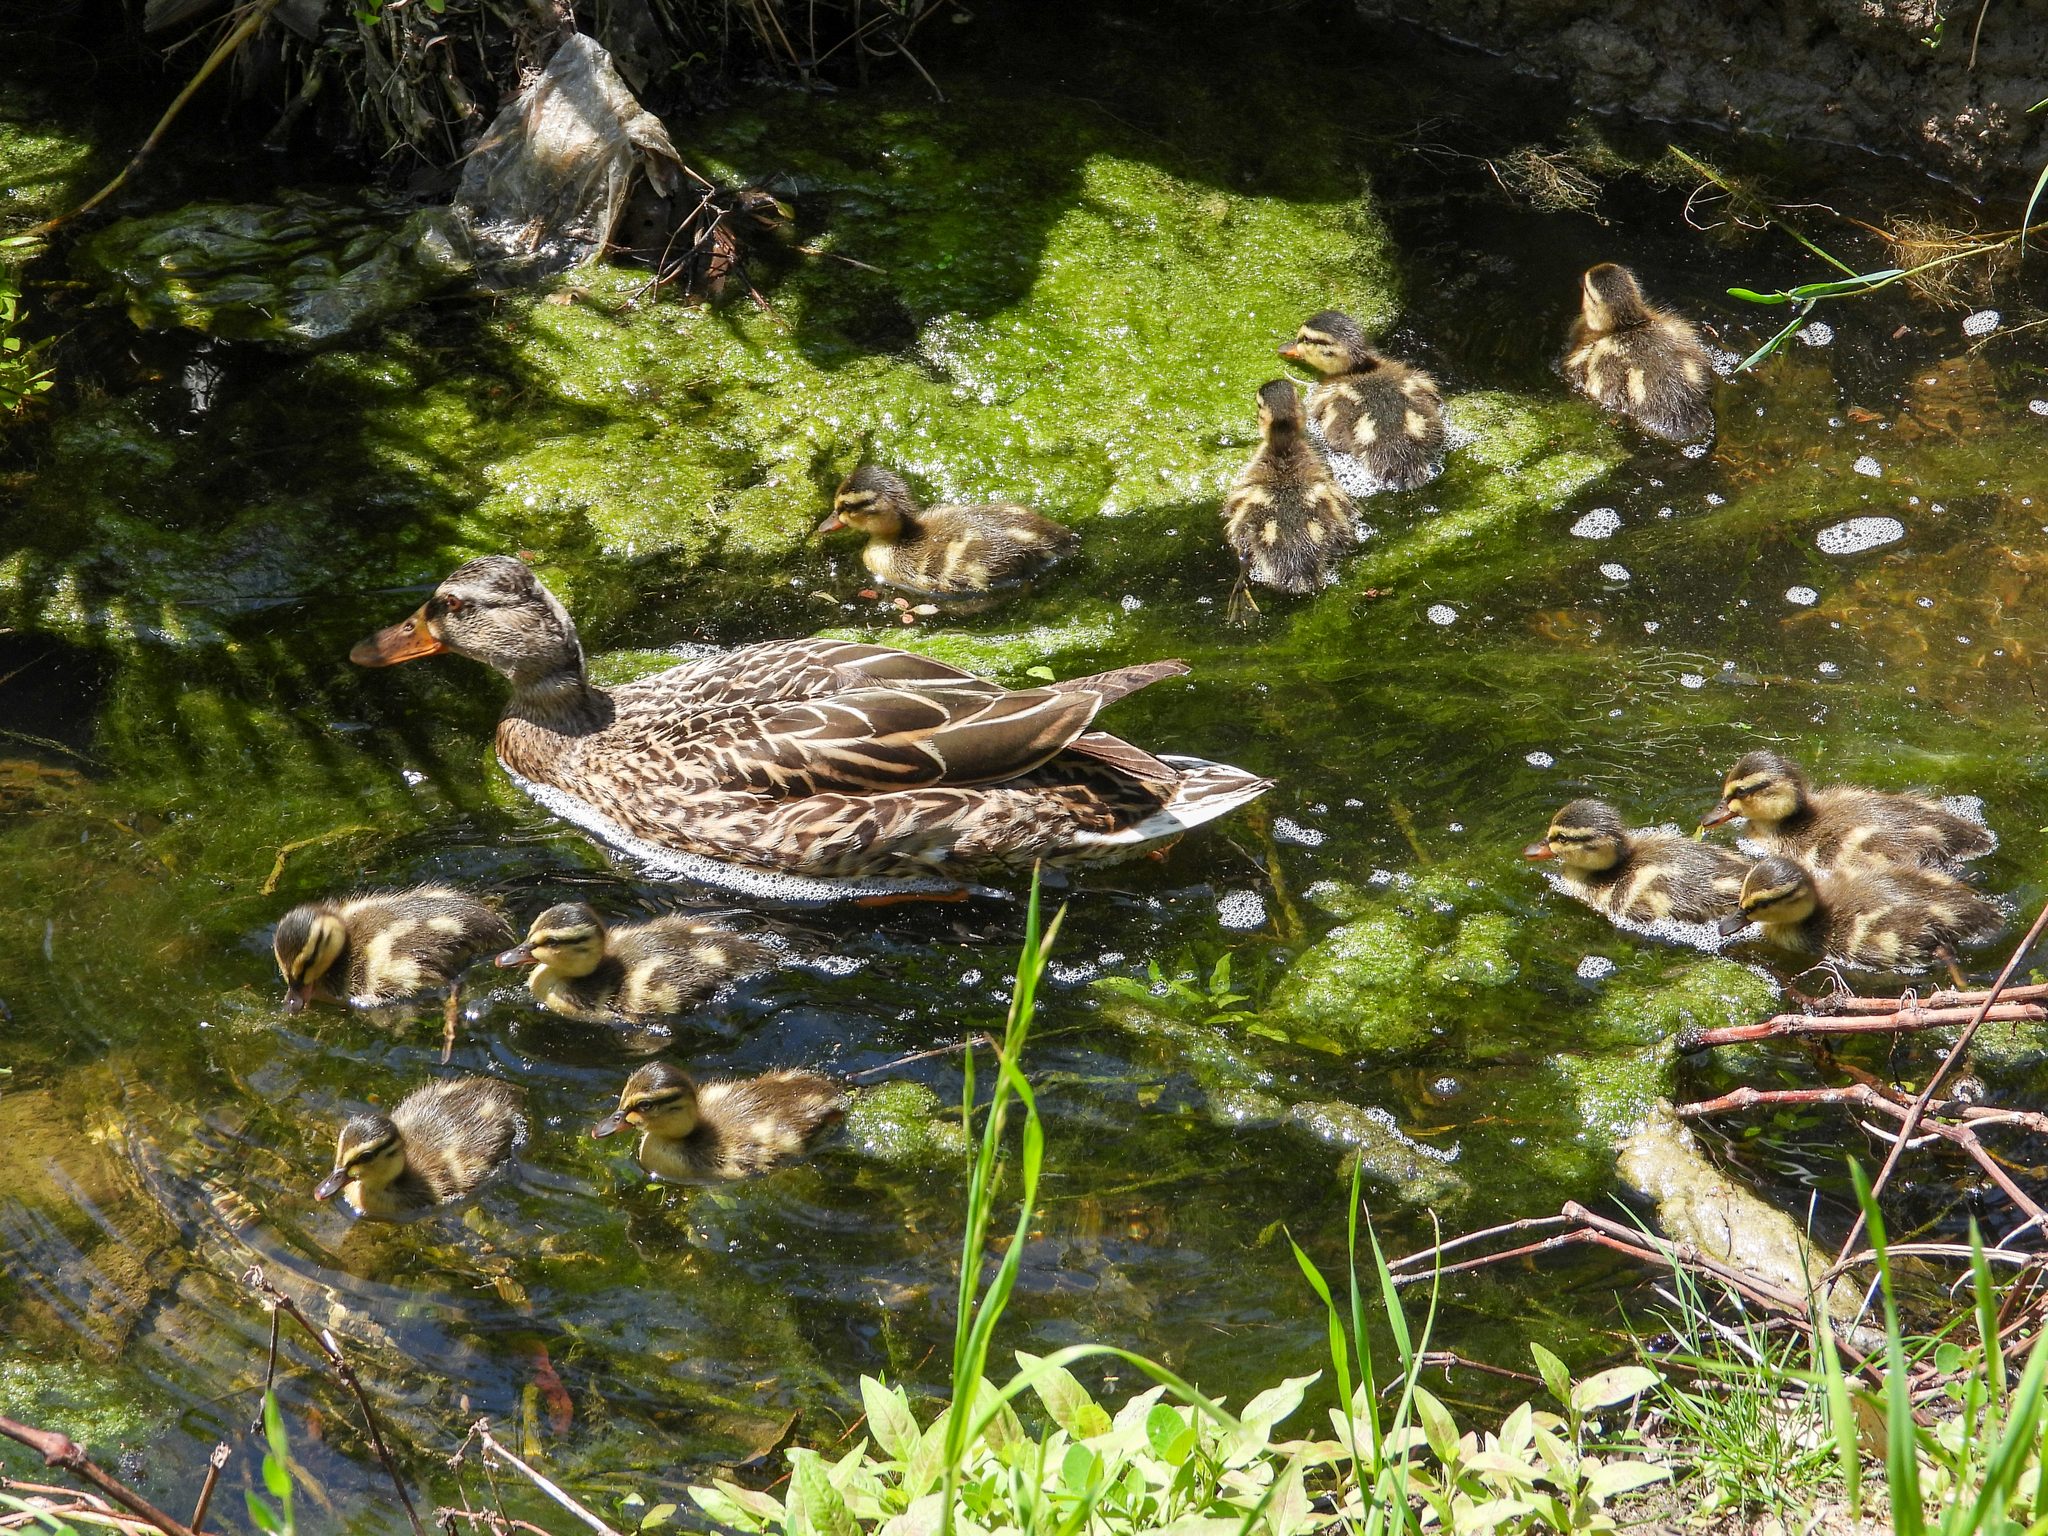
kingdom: Animalia
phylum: Chordata
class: Aves
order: Anseriformes
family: Anatidae
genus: Anas
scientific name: Anas platyrhynchos
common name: Mallard
